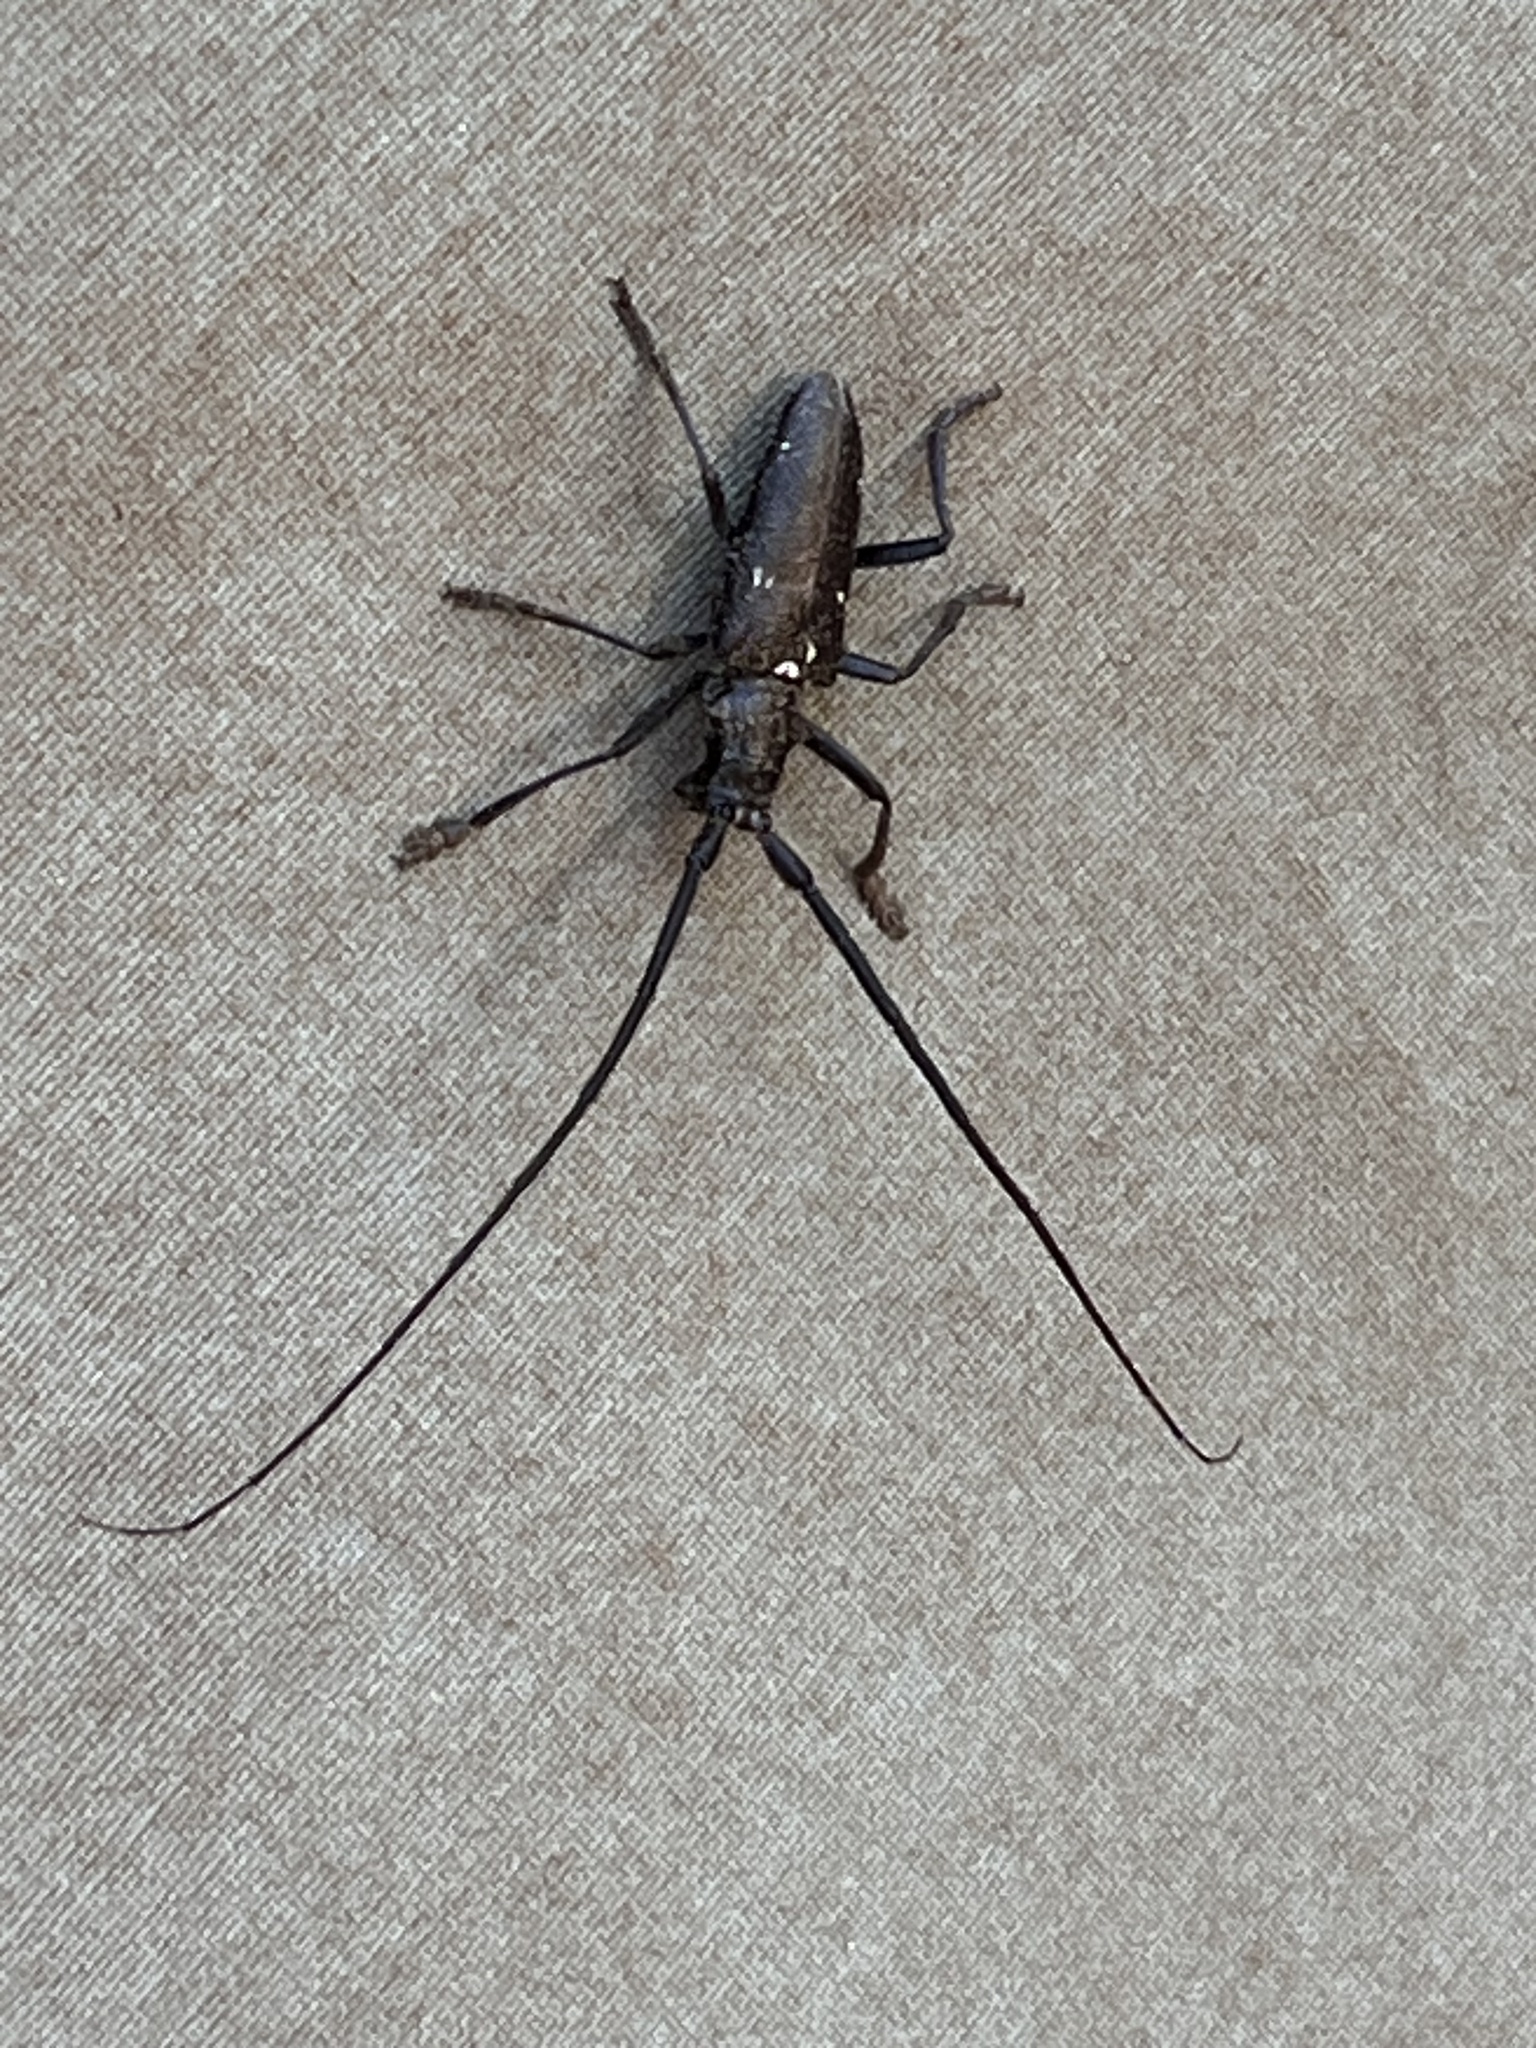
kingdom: Animalia
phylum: Arthropoda
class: Insecta
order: Coleoptera
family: Cerambycidae
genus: Monochamus
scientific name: Monochamus scutellatus
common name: White-spotted sawyer beetle
